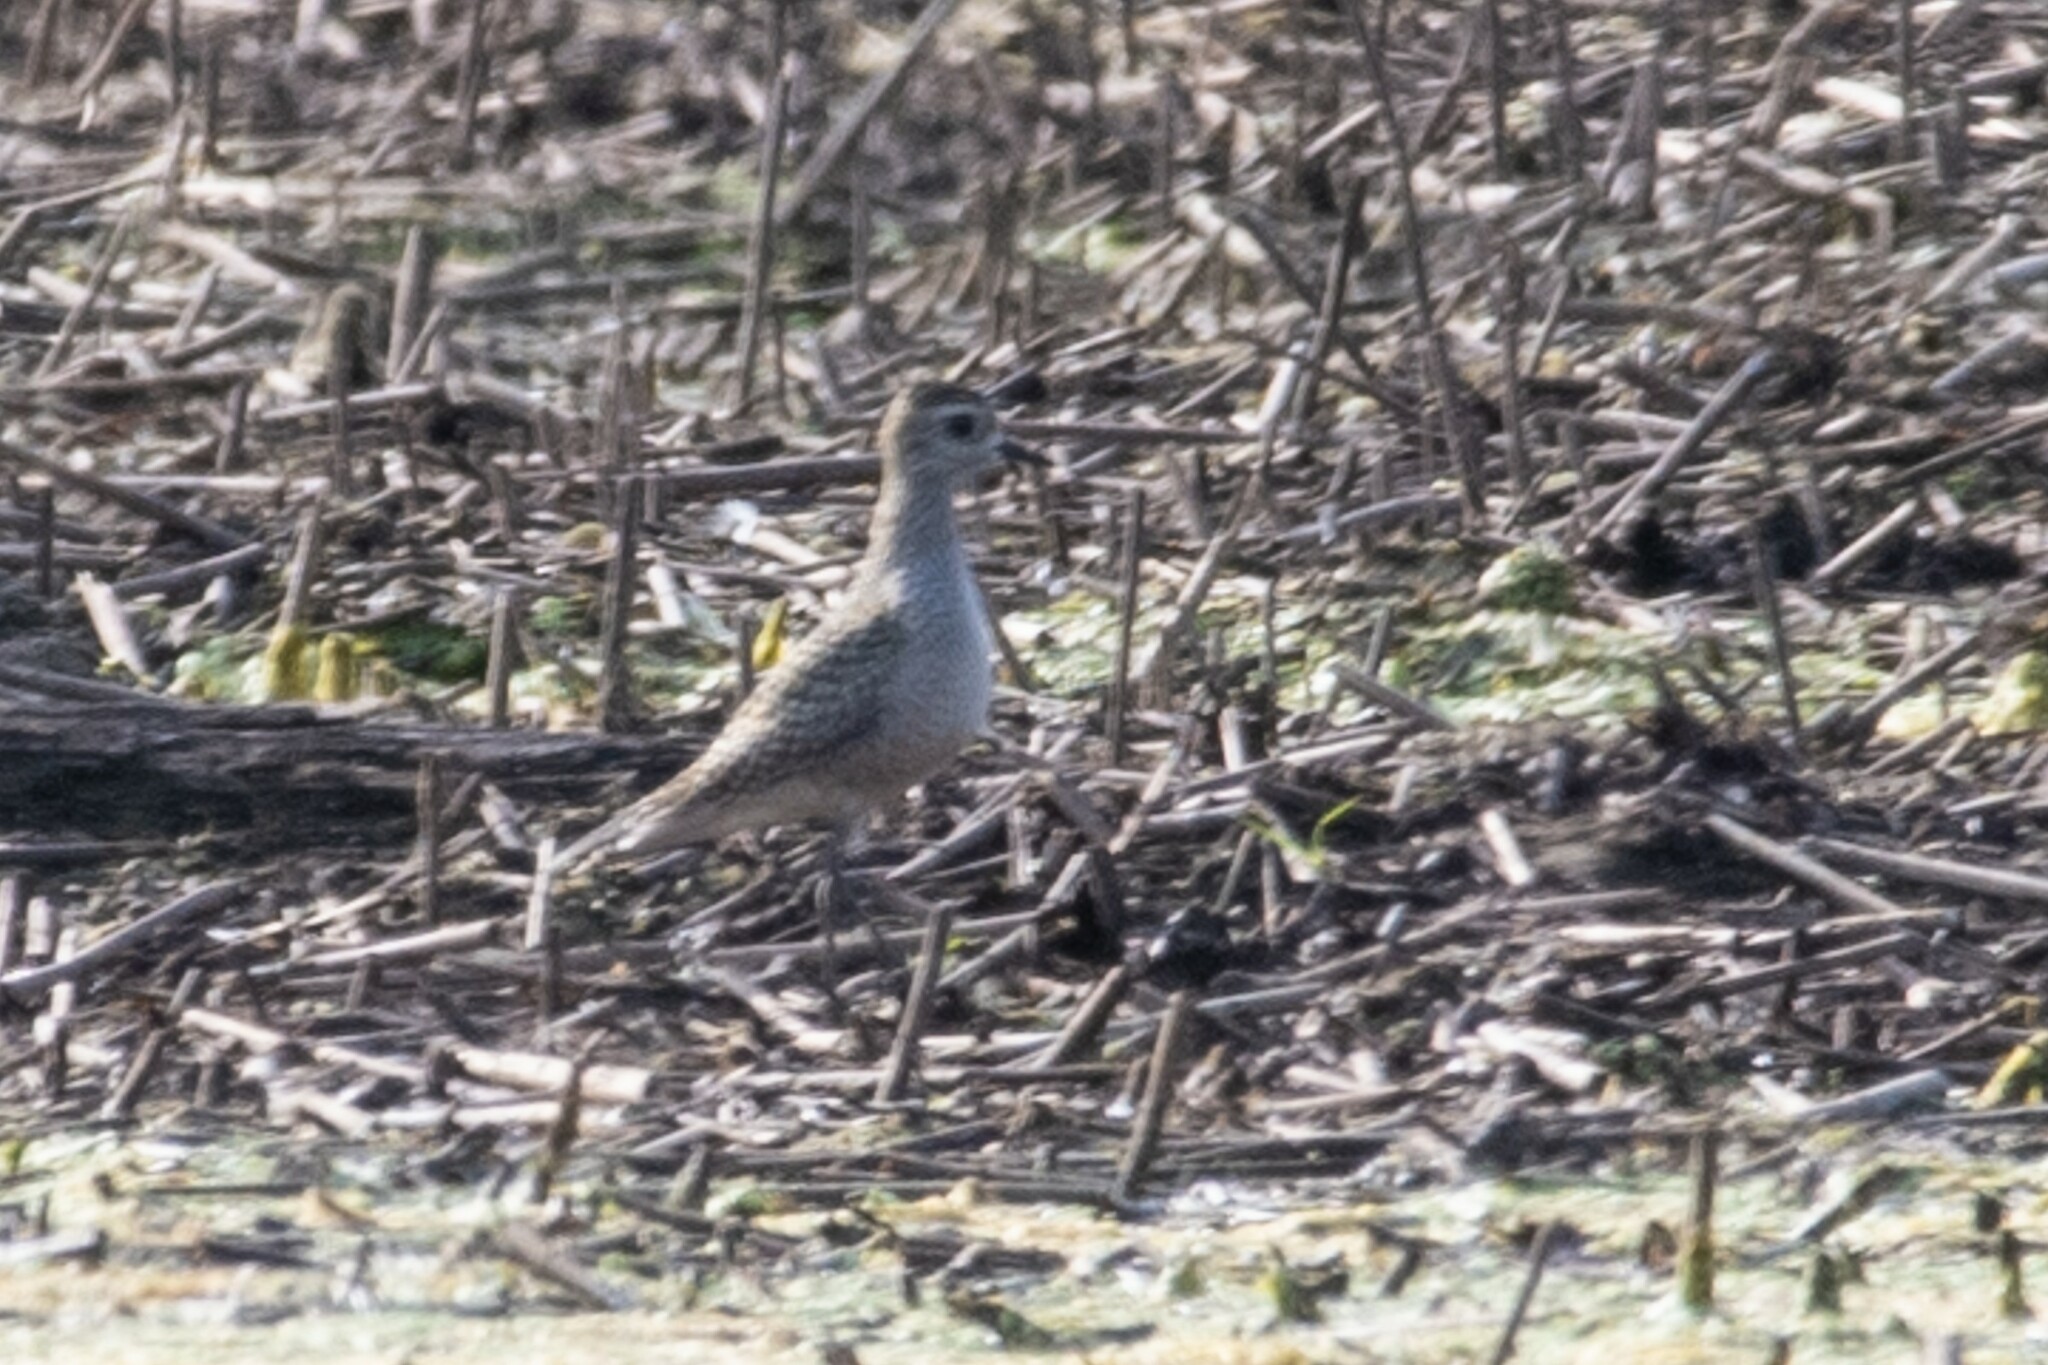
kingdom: Animalia
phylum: Chordata
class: Aves
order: Charadriiformes
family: Charadriidae
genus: Pluvialis
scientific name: Pluvialis dominica
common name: American golden plover
